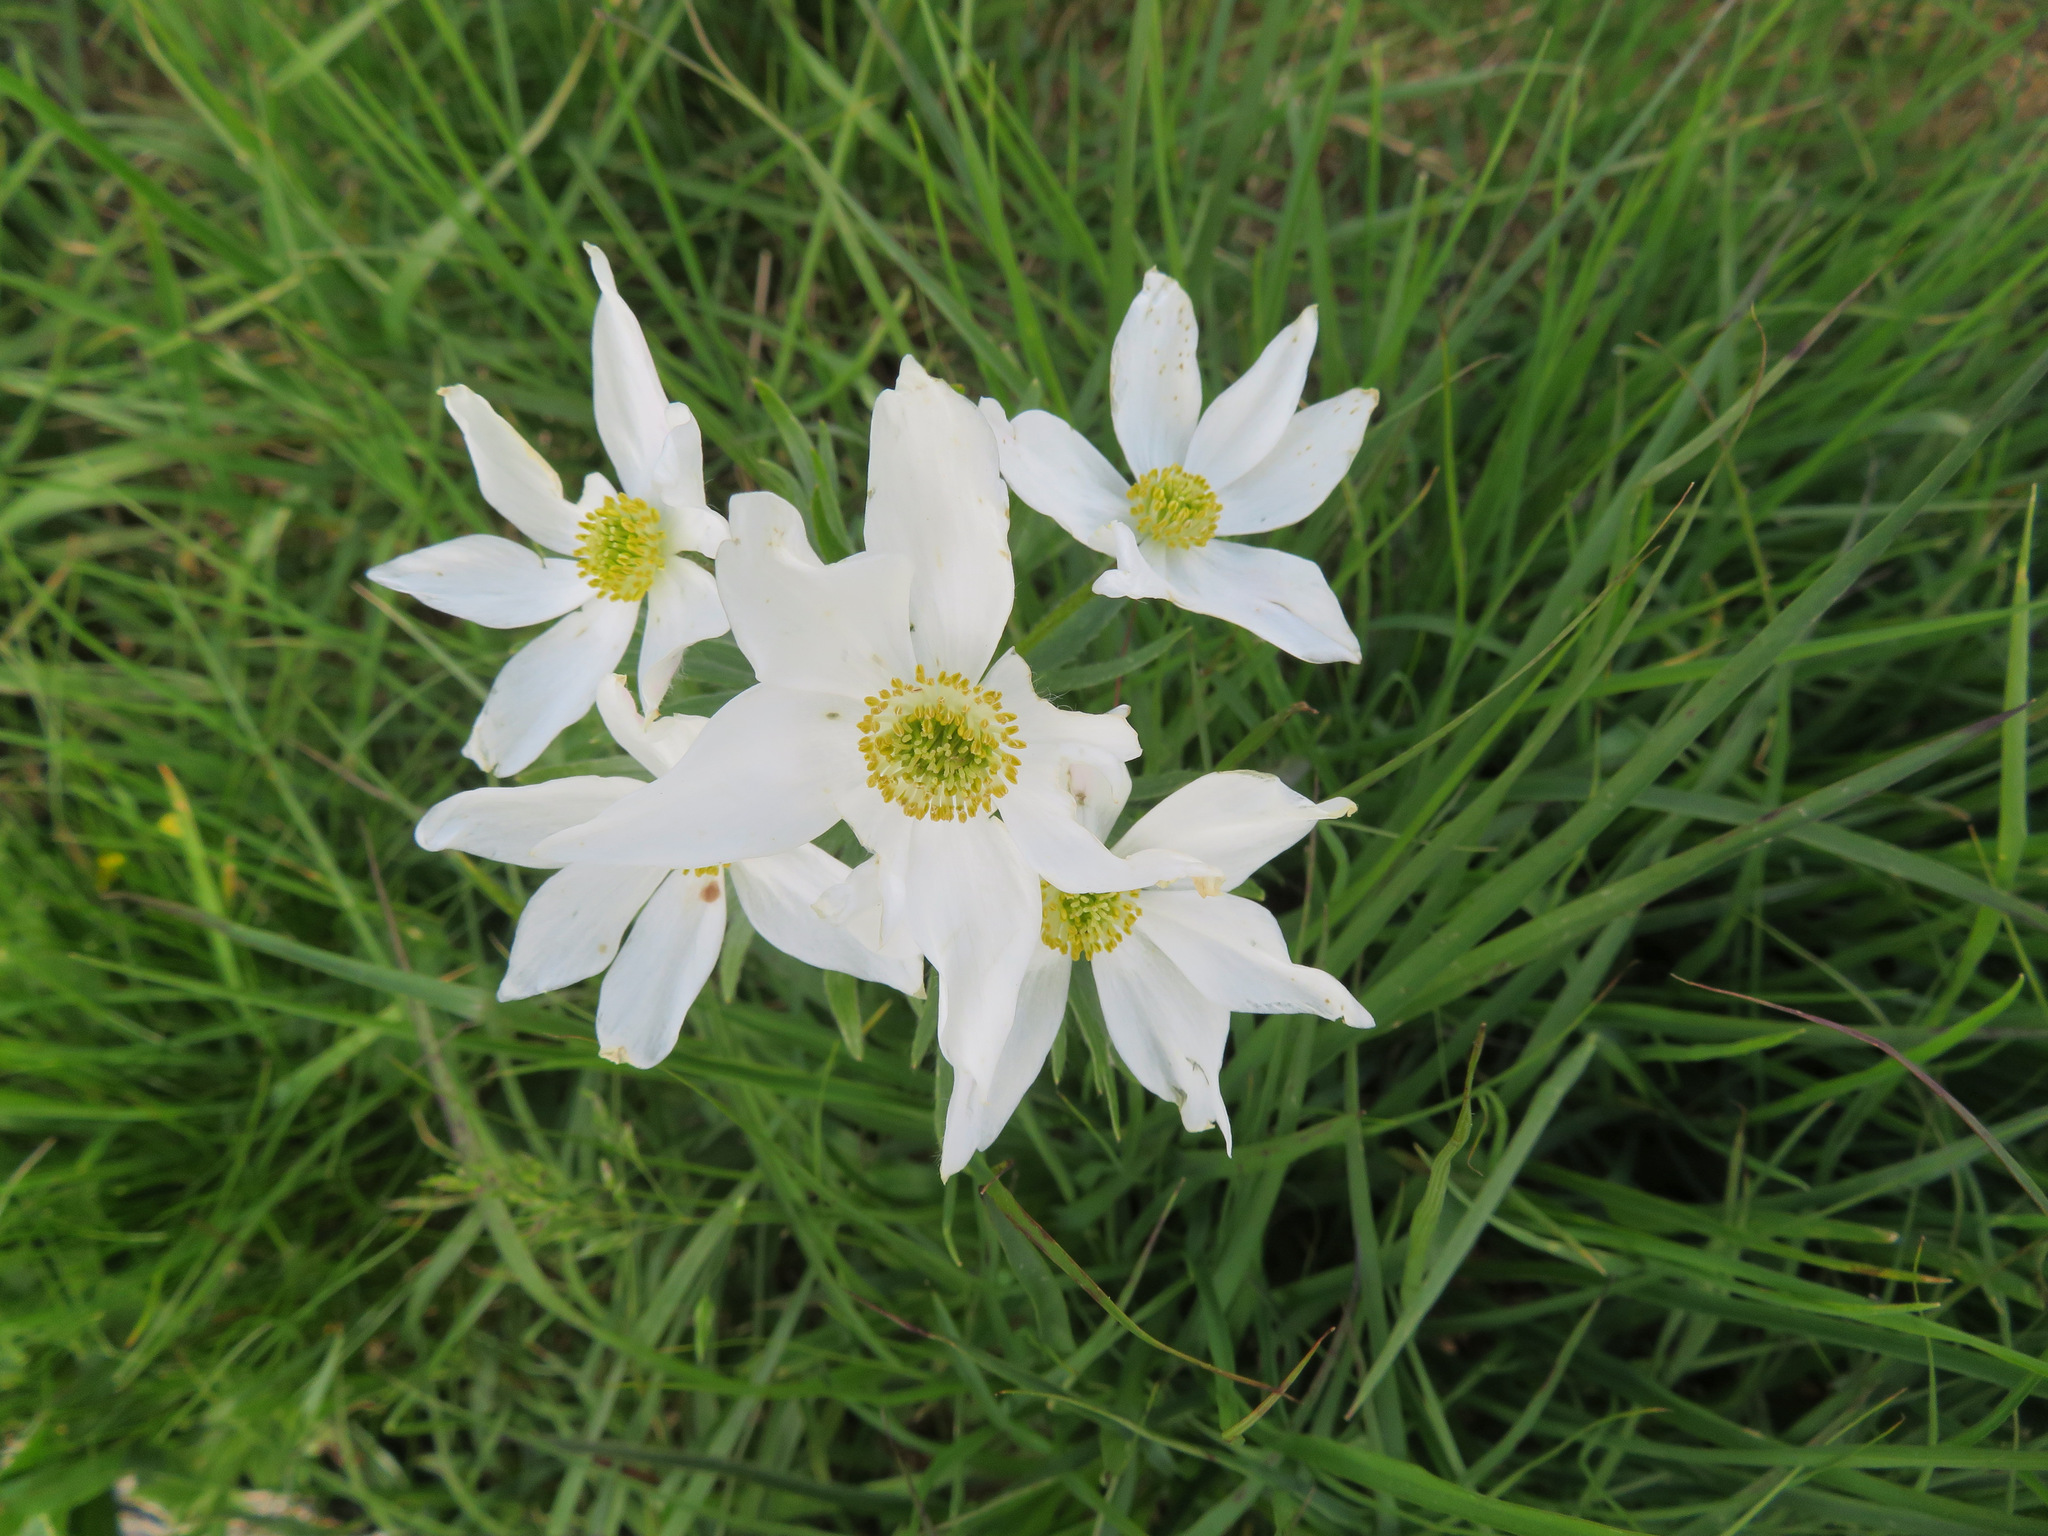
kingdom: Plantae
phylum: Tracheophyta
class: Magnoliopsida
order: Ranunculales
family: Ranunculaceae
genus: Anemonastrum
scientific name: Anemonastrum narcissiflorum
